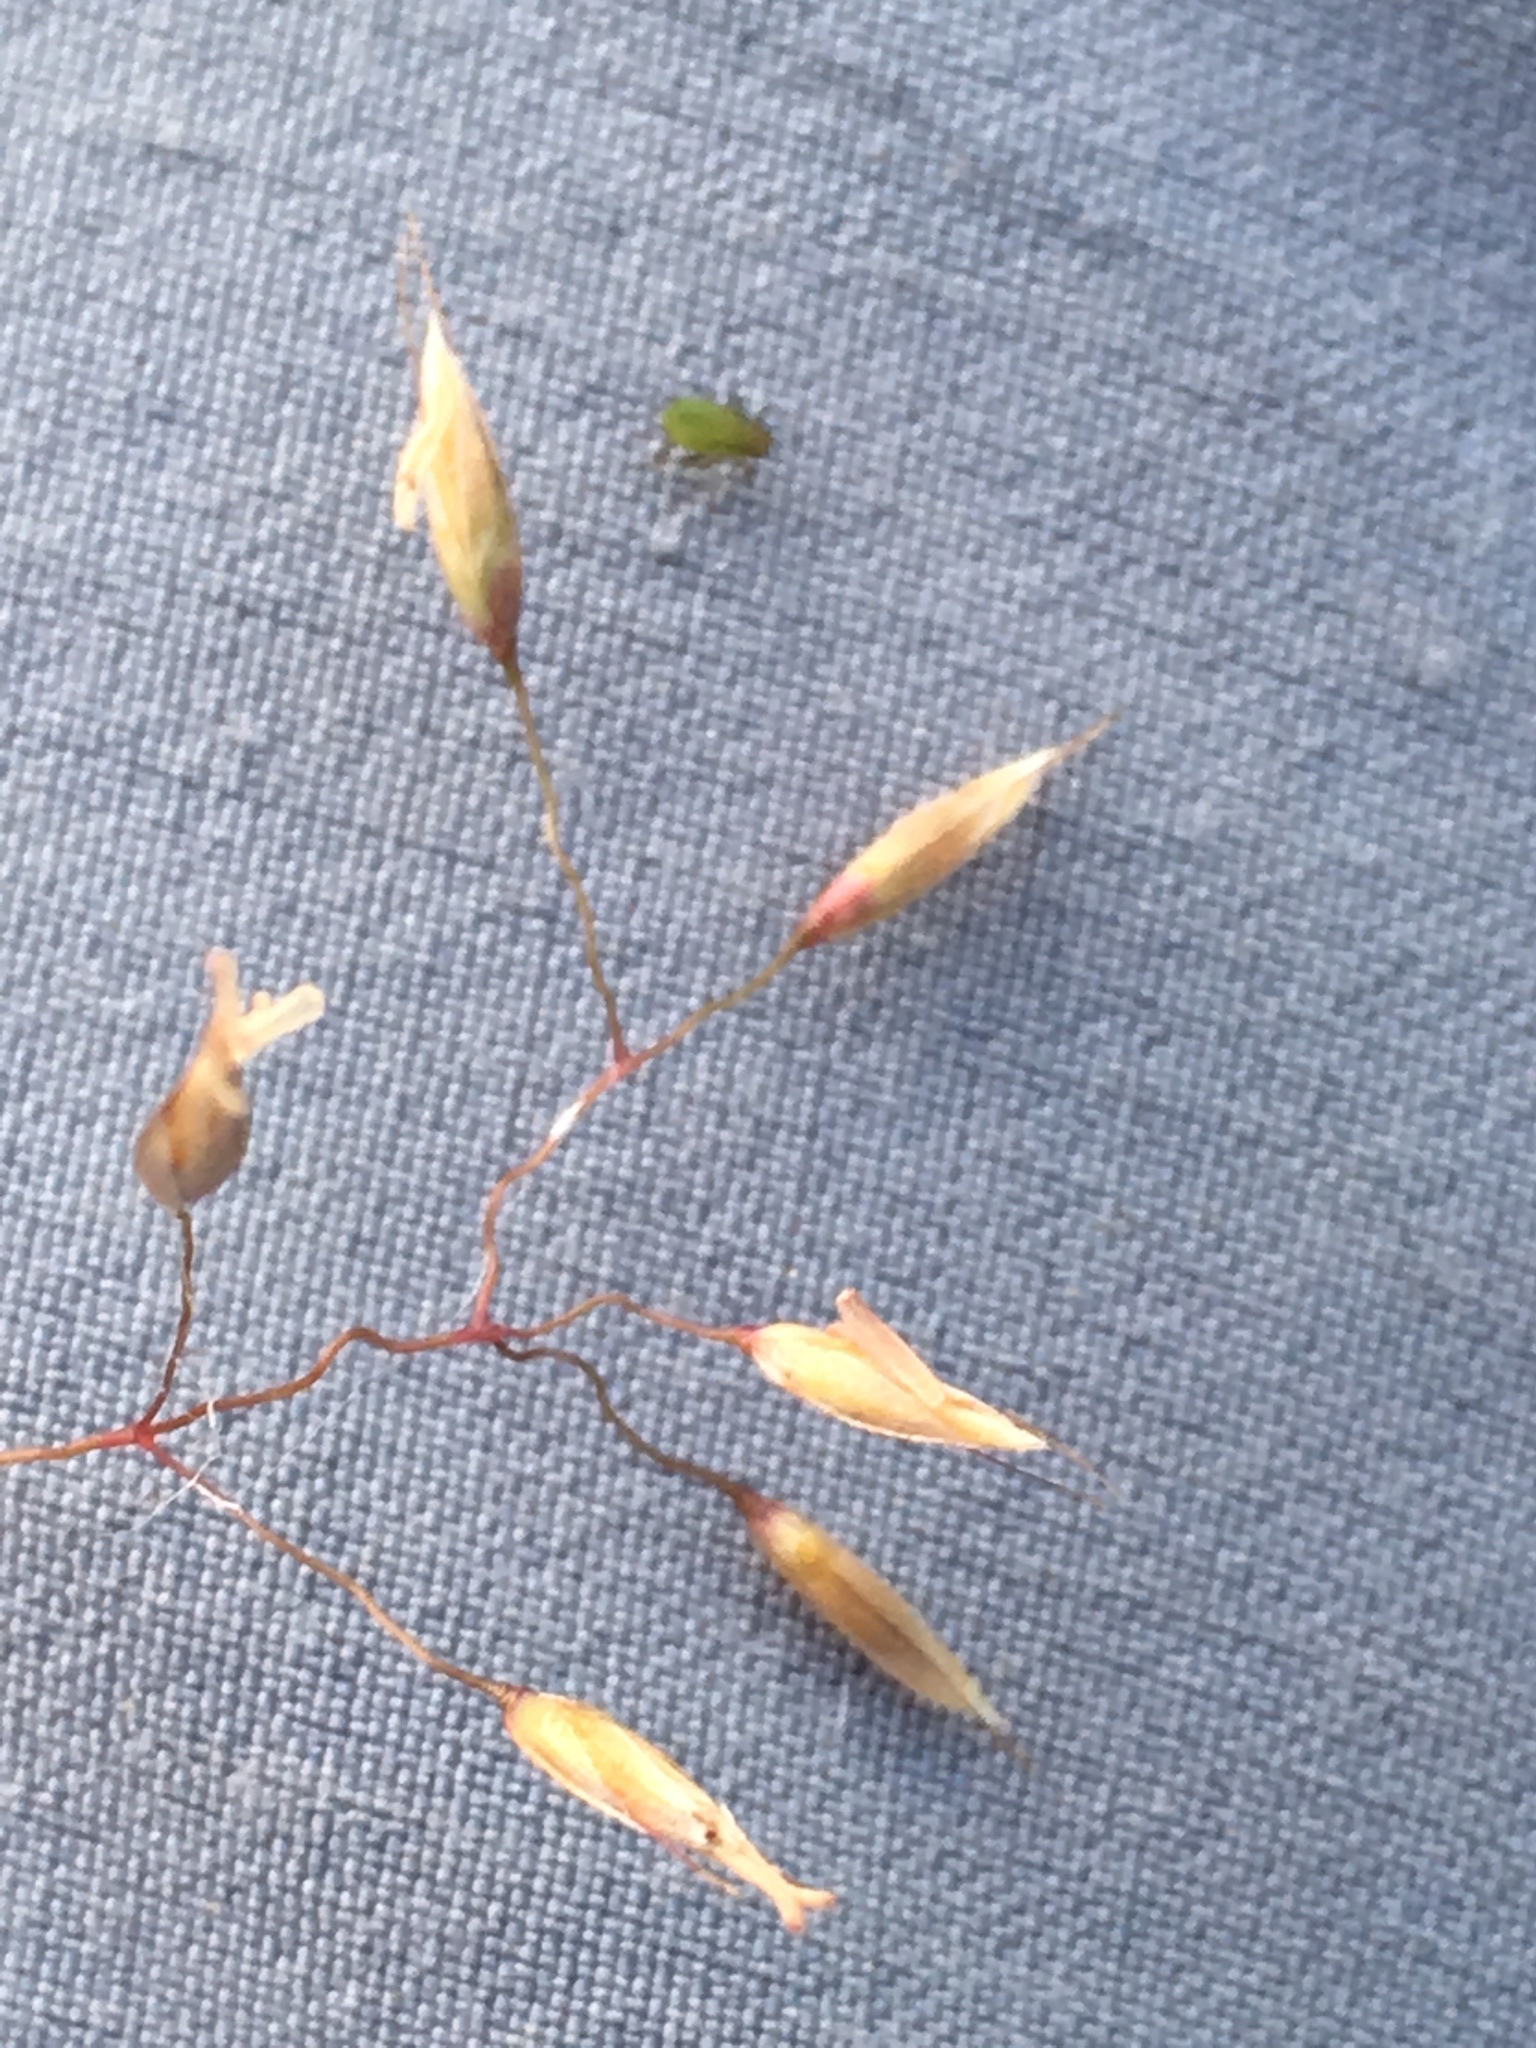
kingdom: Plantae
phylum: Tracheophyta
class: Liliopsida
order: Poales
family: Poaceae
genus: Avenella
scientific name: Avenella flexuosa
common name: Wavy hairgrass
